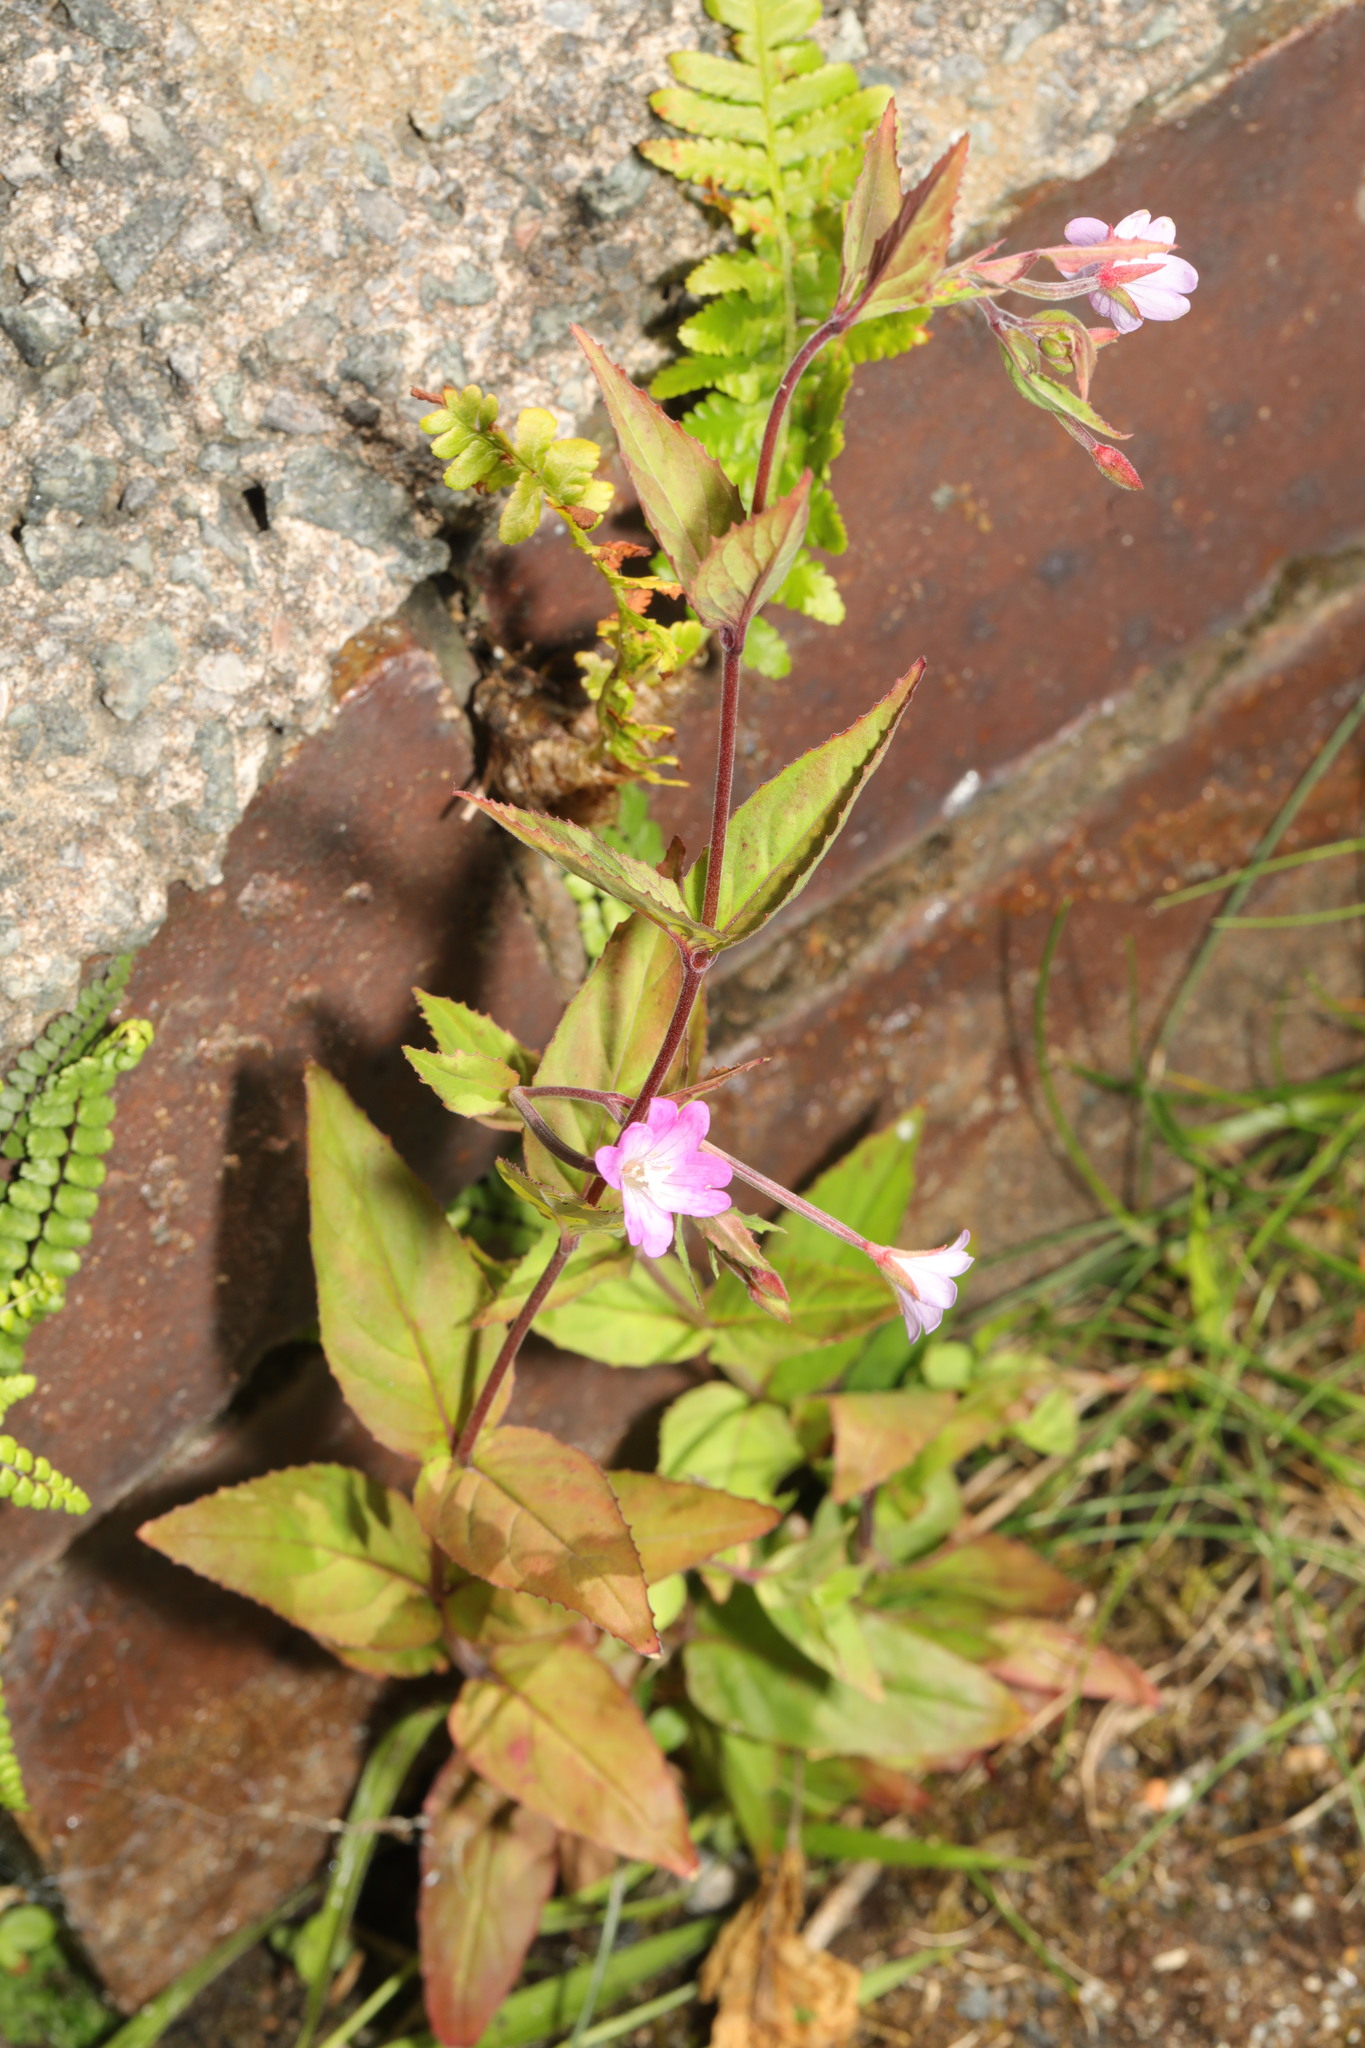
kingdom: Plantae
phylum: Tracheophyta
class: Magnoliopsida
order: Myrtales
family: Onagraceae
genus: Epilobium
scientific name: Epilobium montanum
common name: Broad-leaved willowherb
